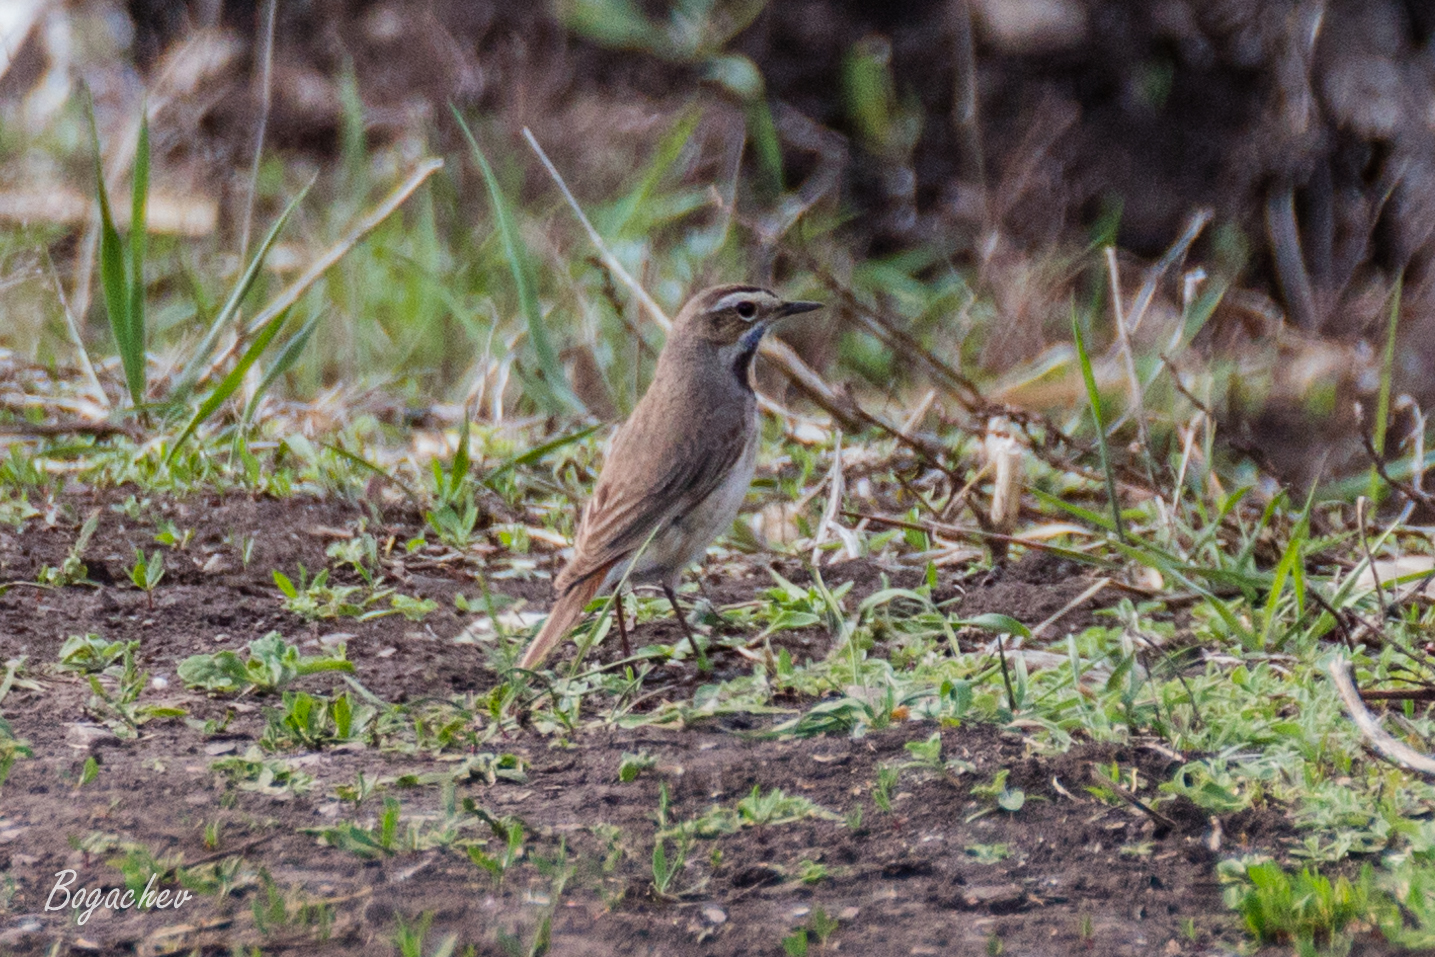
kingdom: Animalia
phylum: Chordata
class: Aves
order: Passeriformes
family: Muscicapidae
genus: Luscinia
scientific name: Luscinia svecica
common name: Bluethroat
